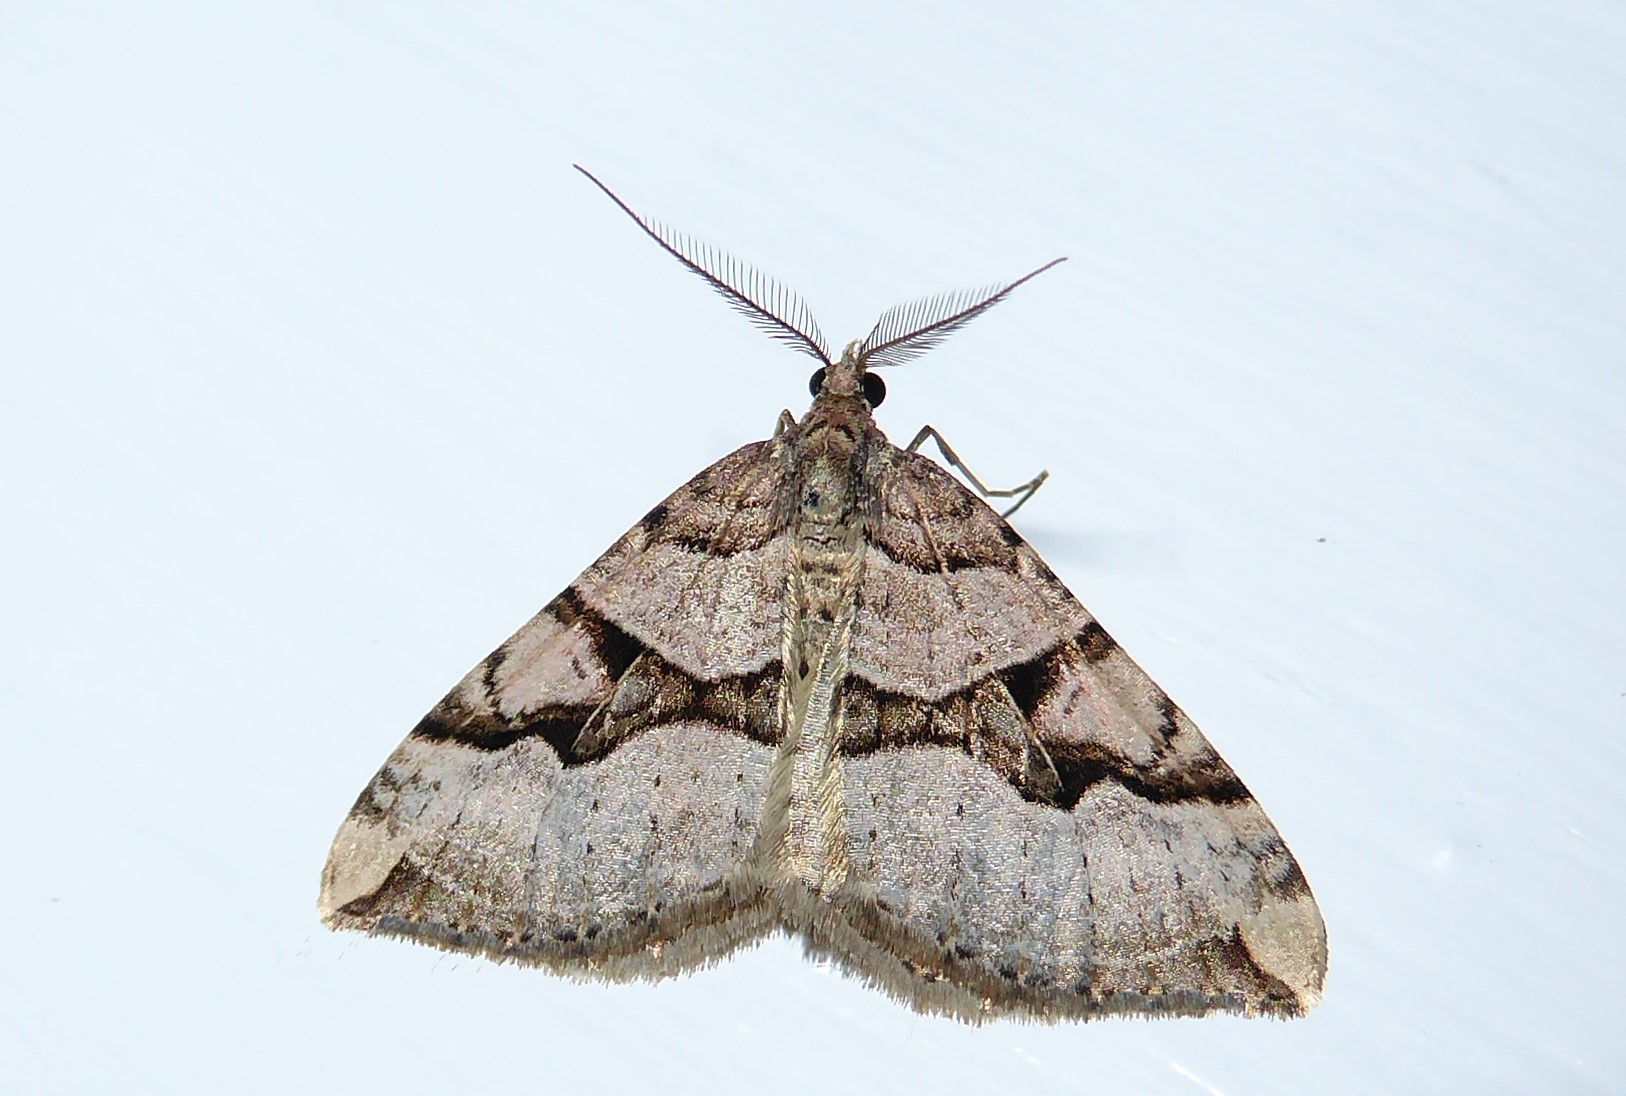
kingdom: Animalia
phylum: Arthropoda
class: Insecta
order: Lepidoptera
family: Geometridae
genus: Xanthorhoe
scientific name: Xanthorhoe semifissata
